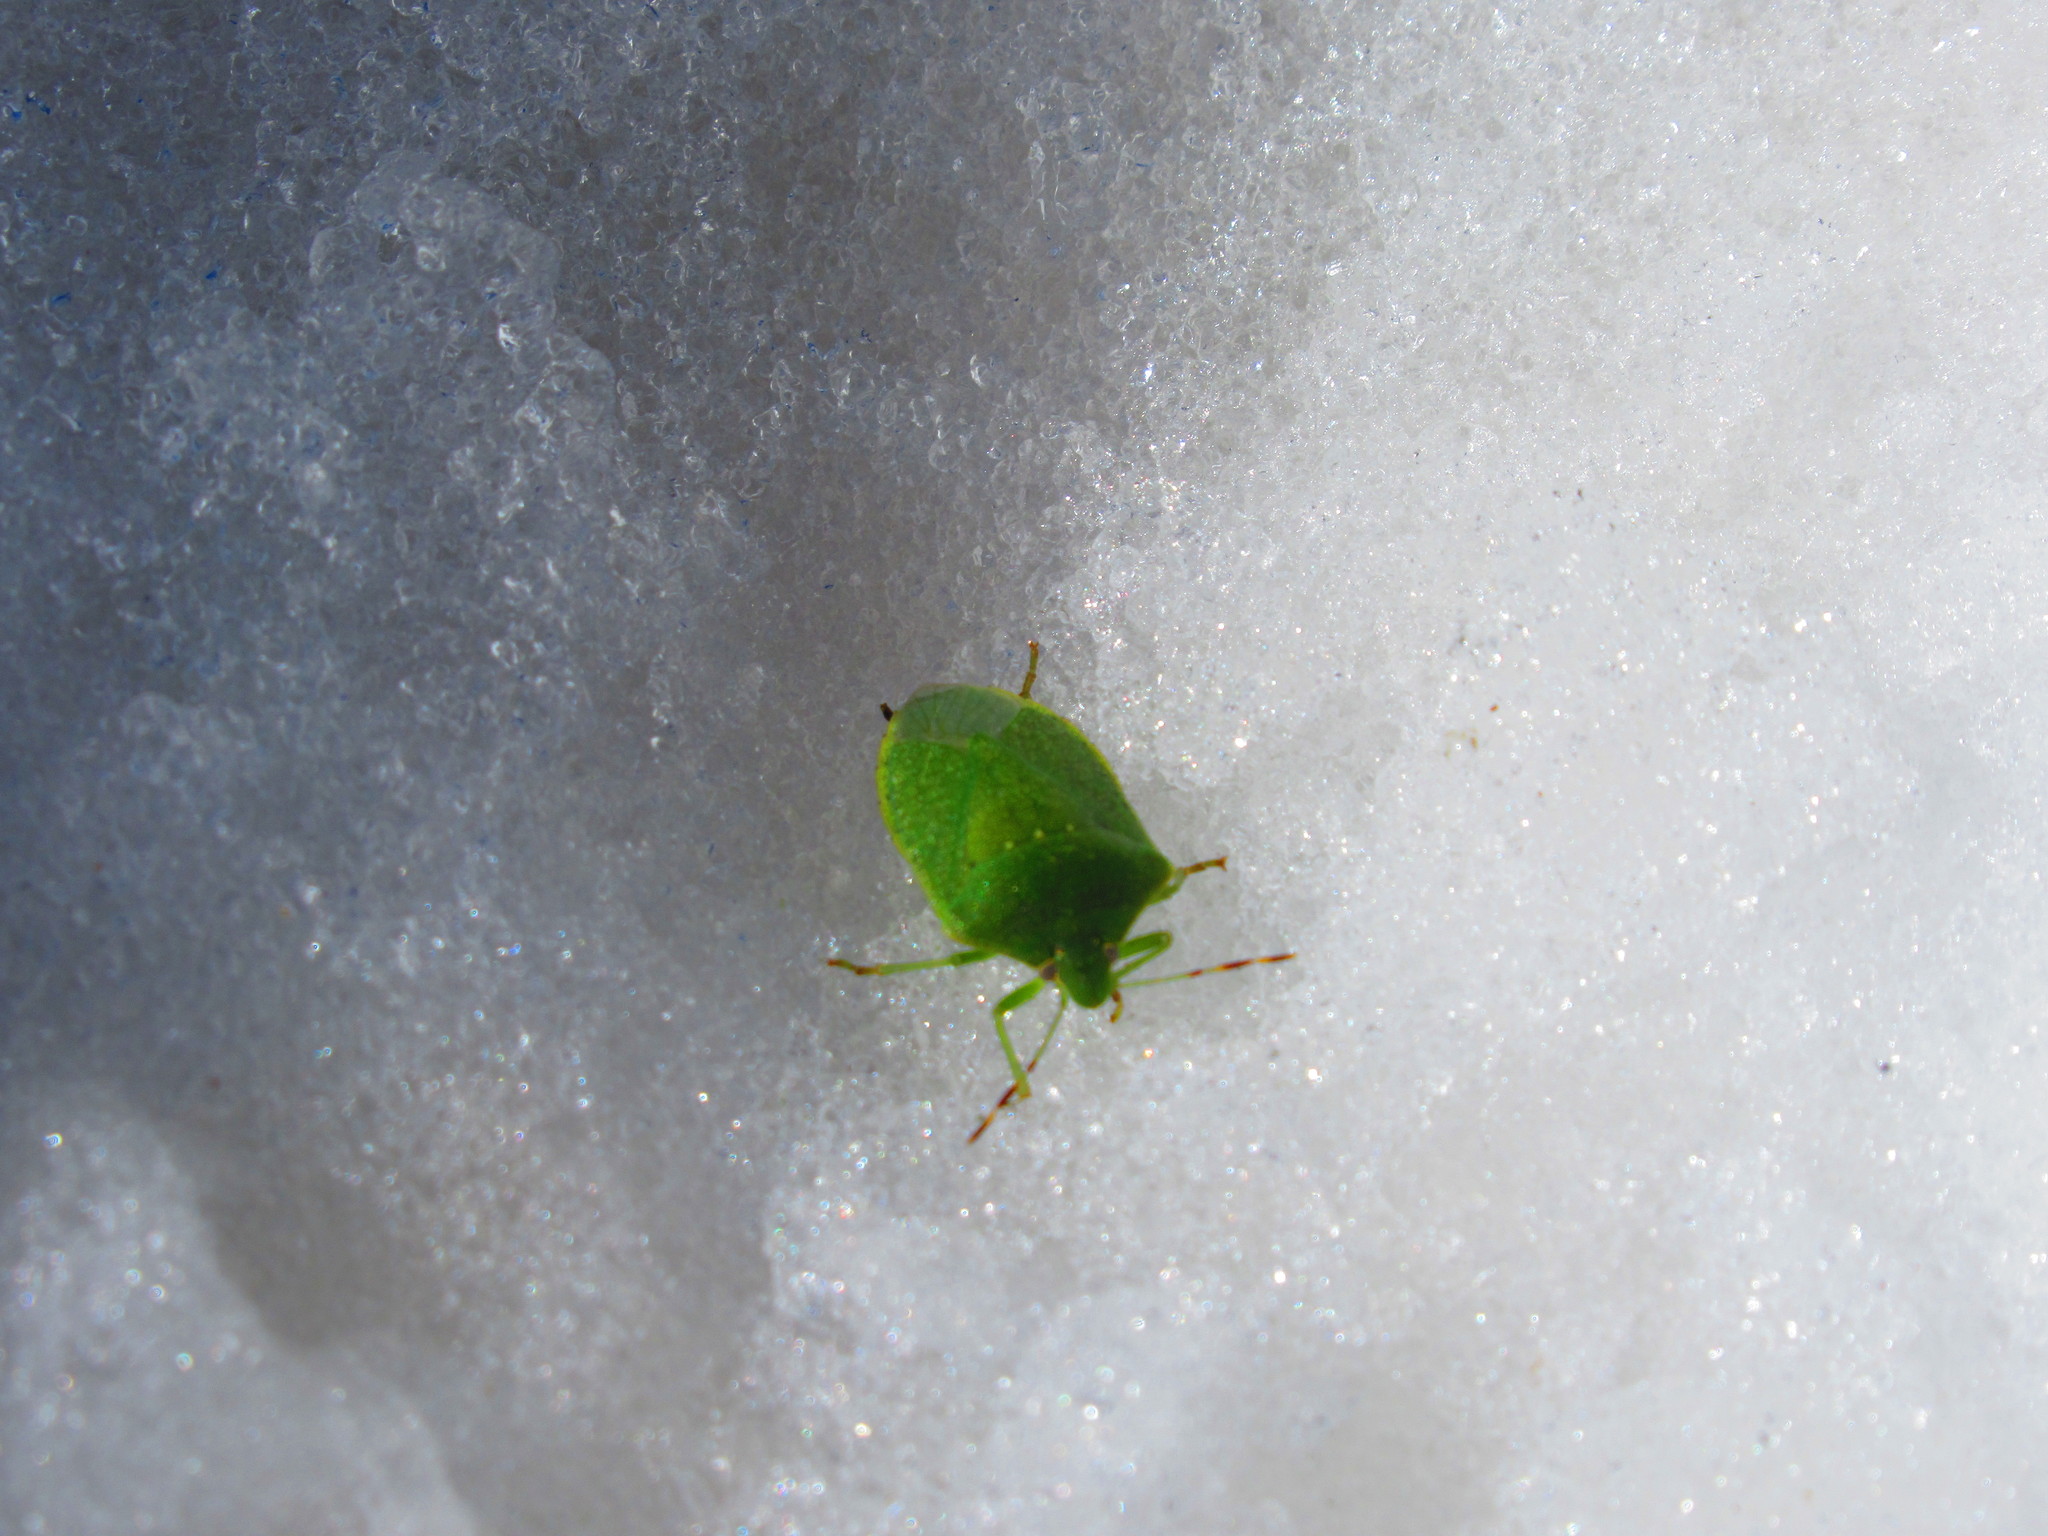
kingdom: Animalia
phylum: Arthropoda
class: Insecta
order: Hemiptera
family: Pentatomidae
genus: Nezara
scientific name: Nezara viridula
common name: Southern green stink bug
